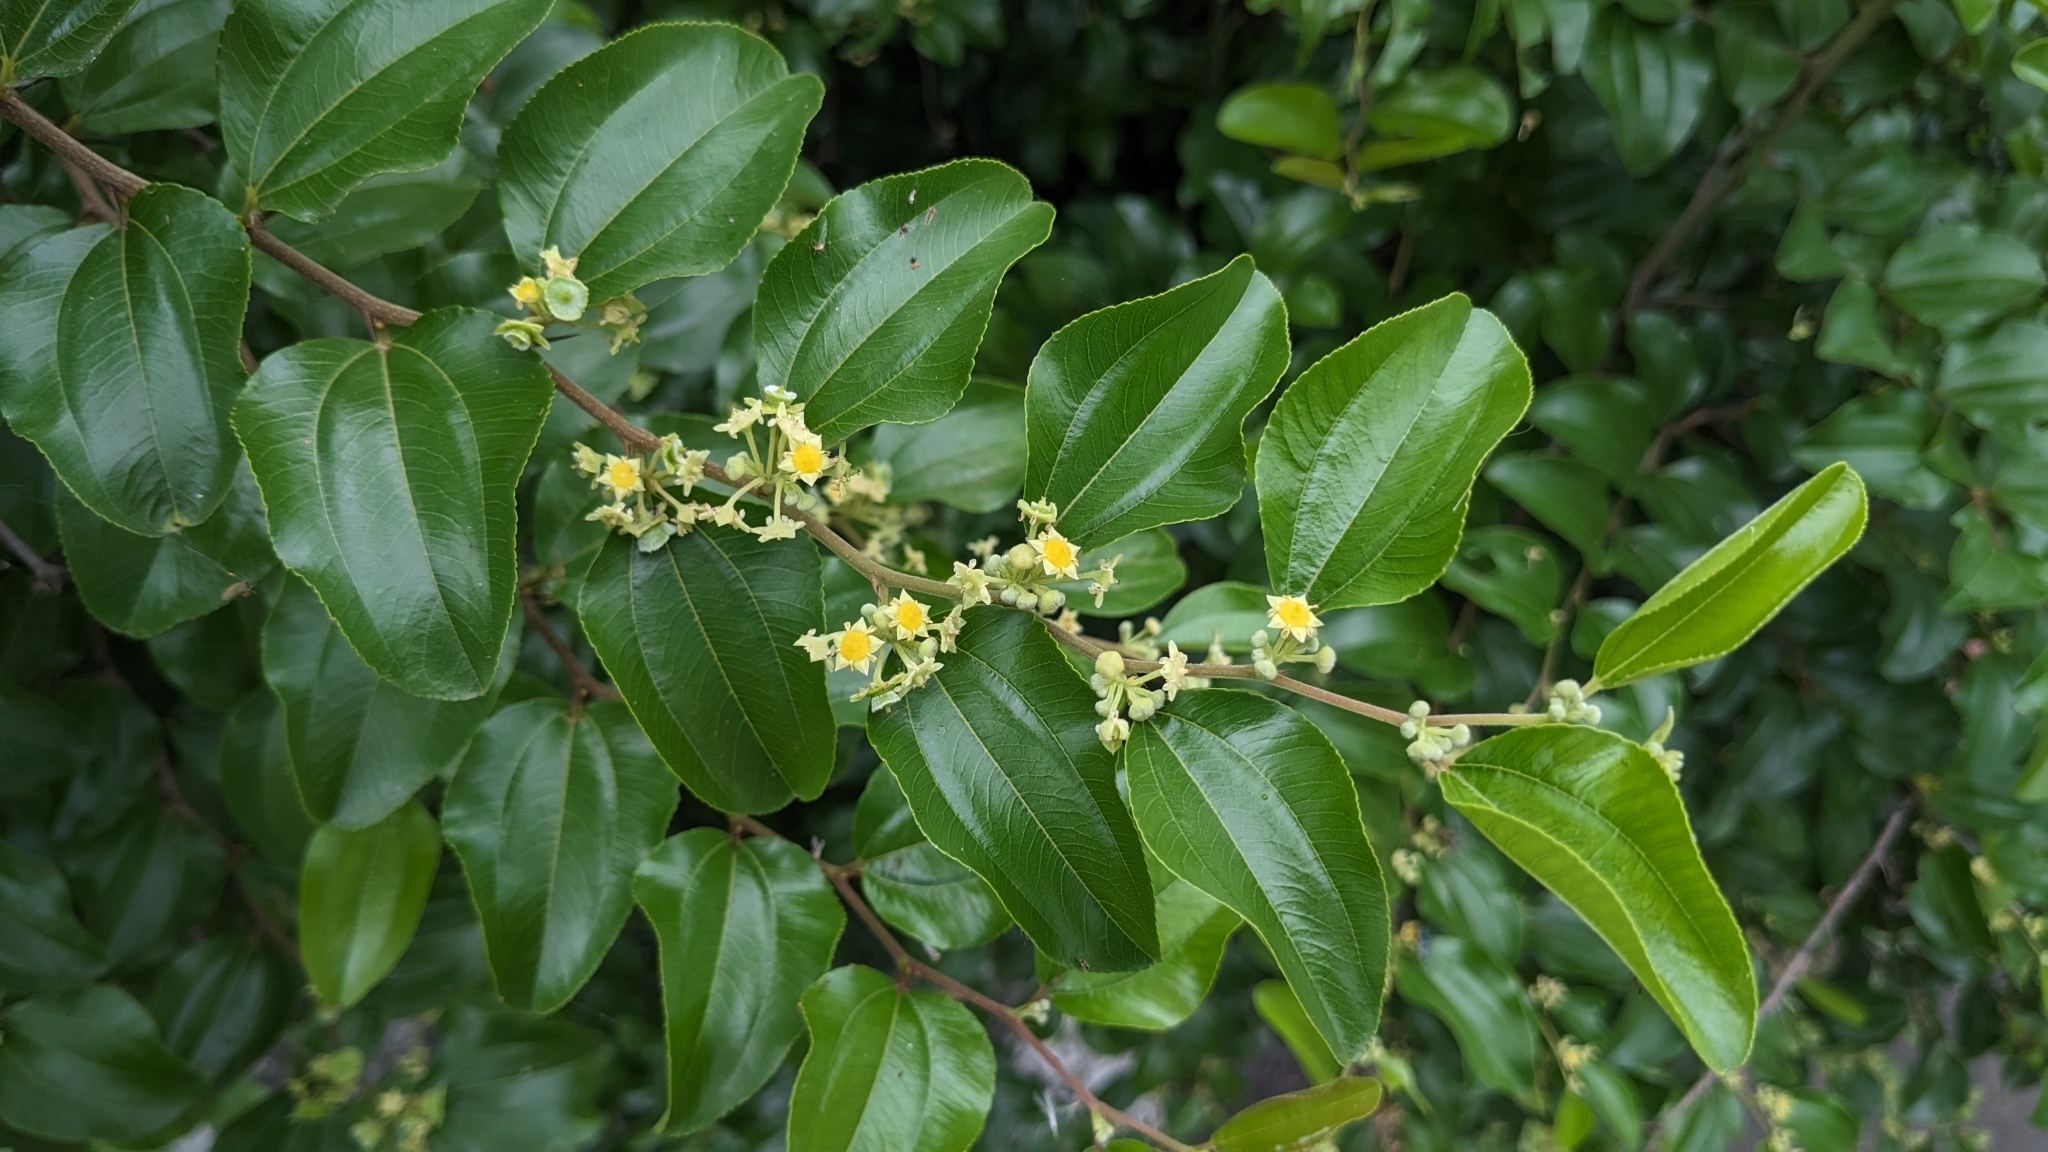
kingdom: Plantae
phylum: Tracheophyta
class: Magnoliopsida
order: Rosales
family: Rhamnaceae
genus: Paliurus
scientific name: Paliurus ramosissimus
